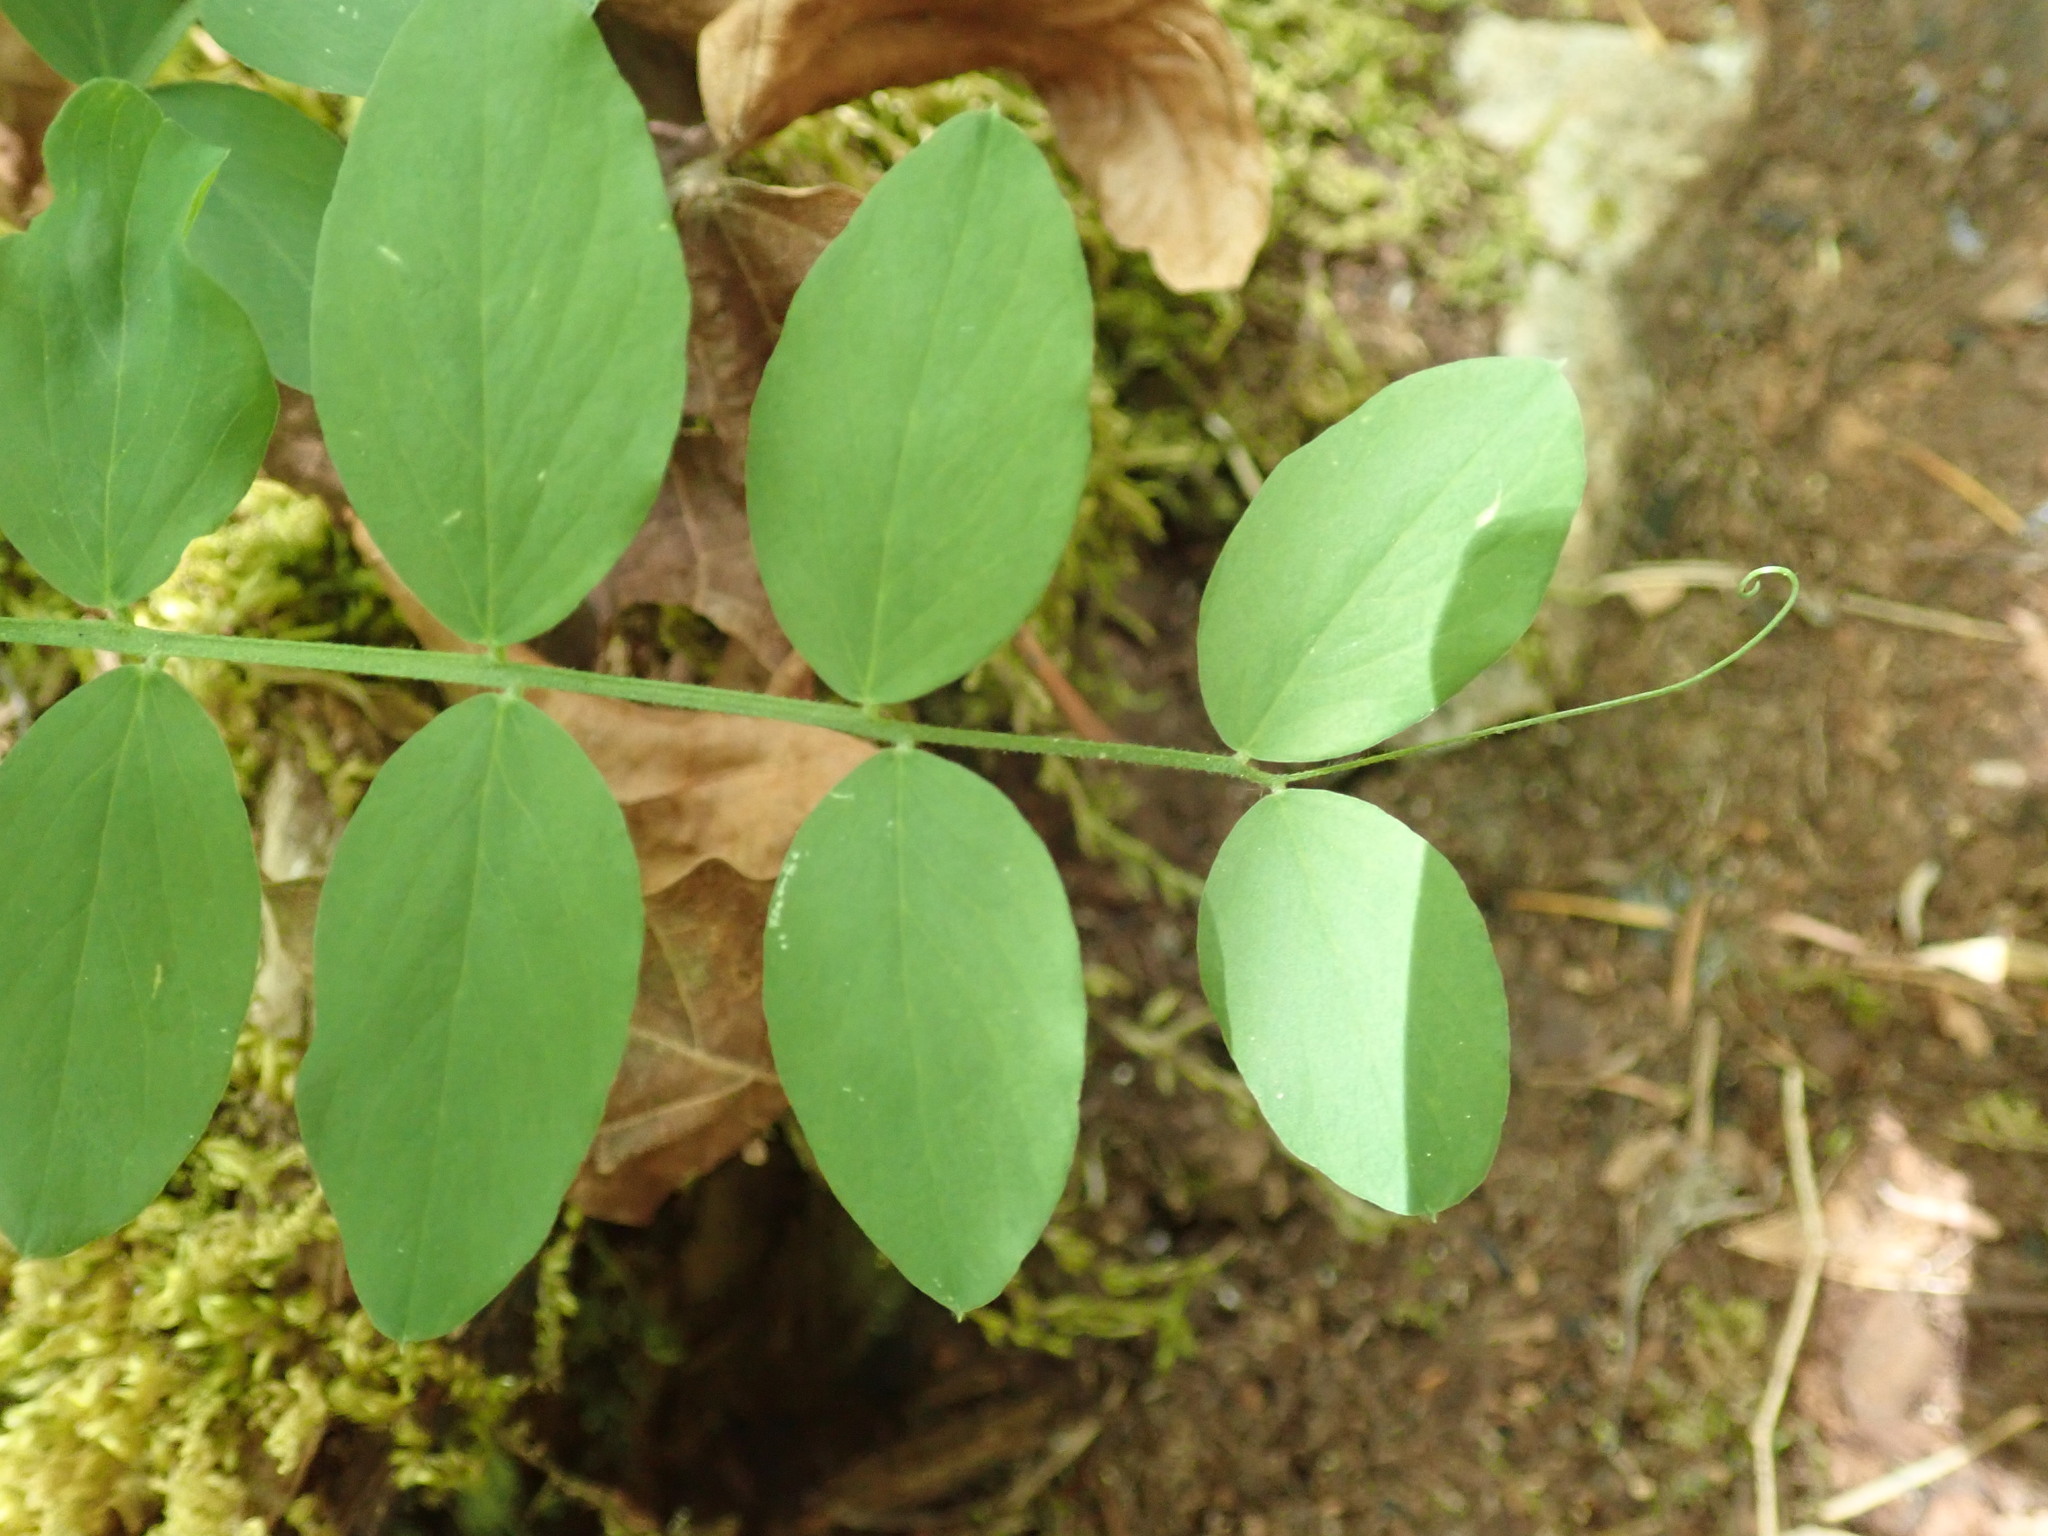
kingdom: Plantae
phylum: Tracheophyta
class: Magnoliopsida
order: Fabales
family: Fabaceae
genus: Lathyrus
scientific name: Lathyrus nevadensis
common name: Sierra nevada peavine
